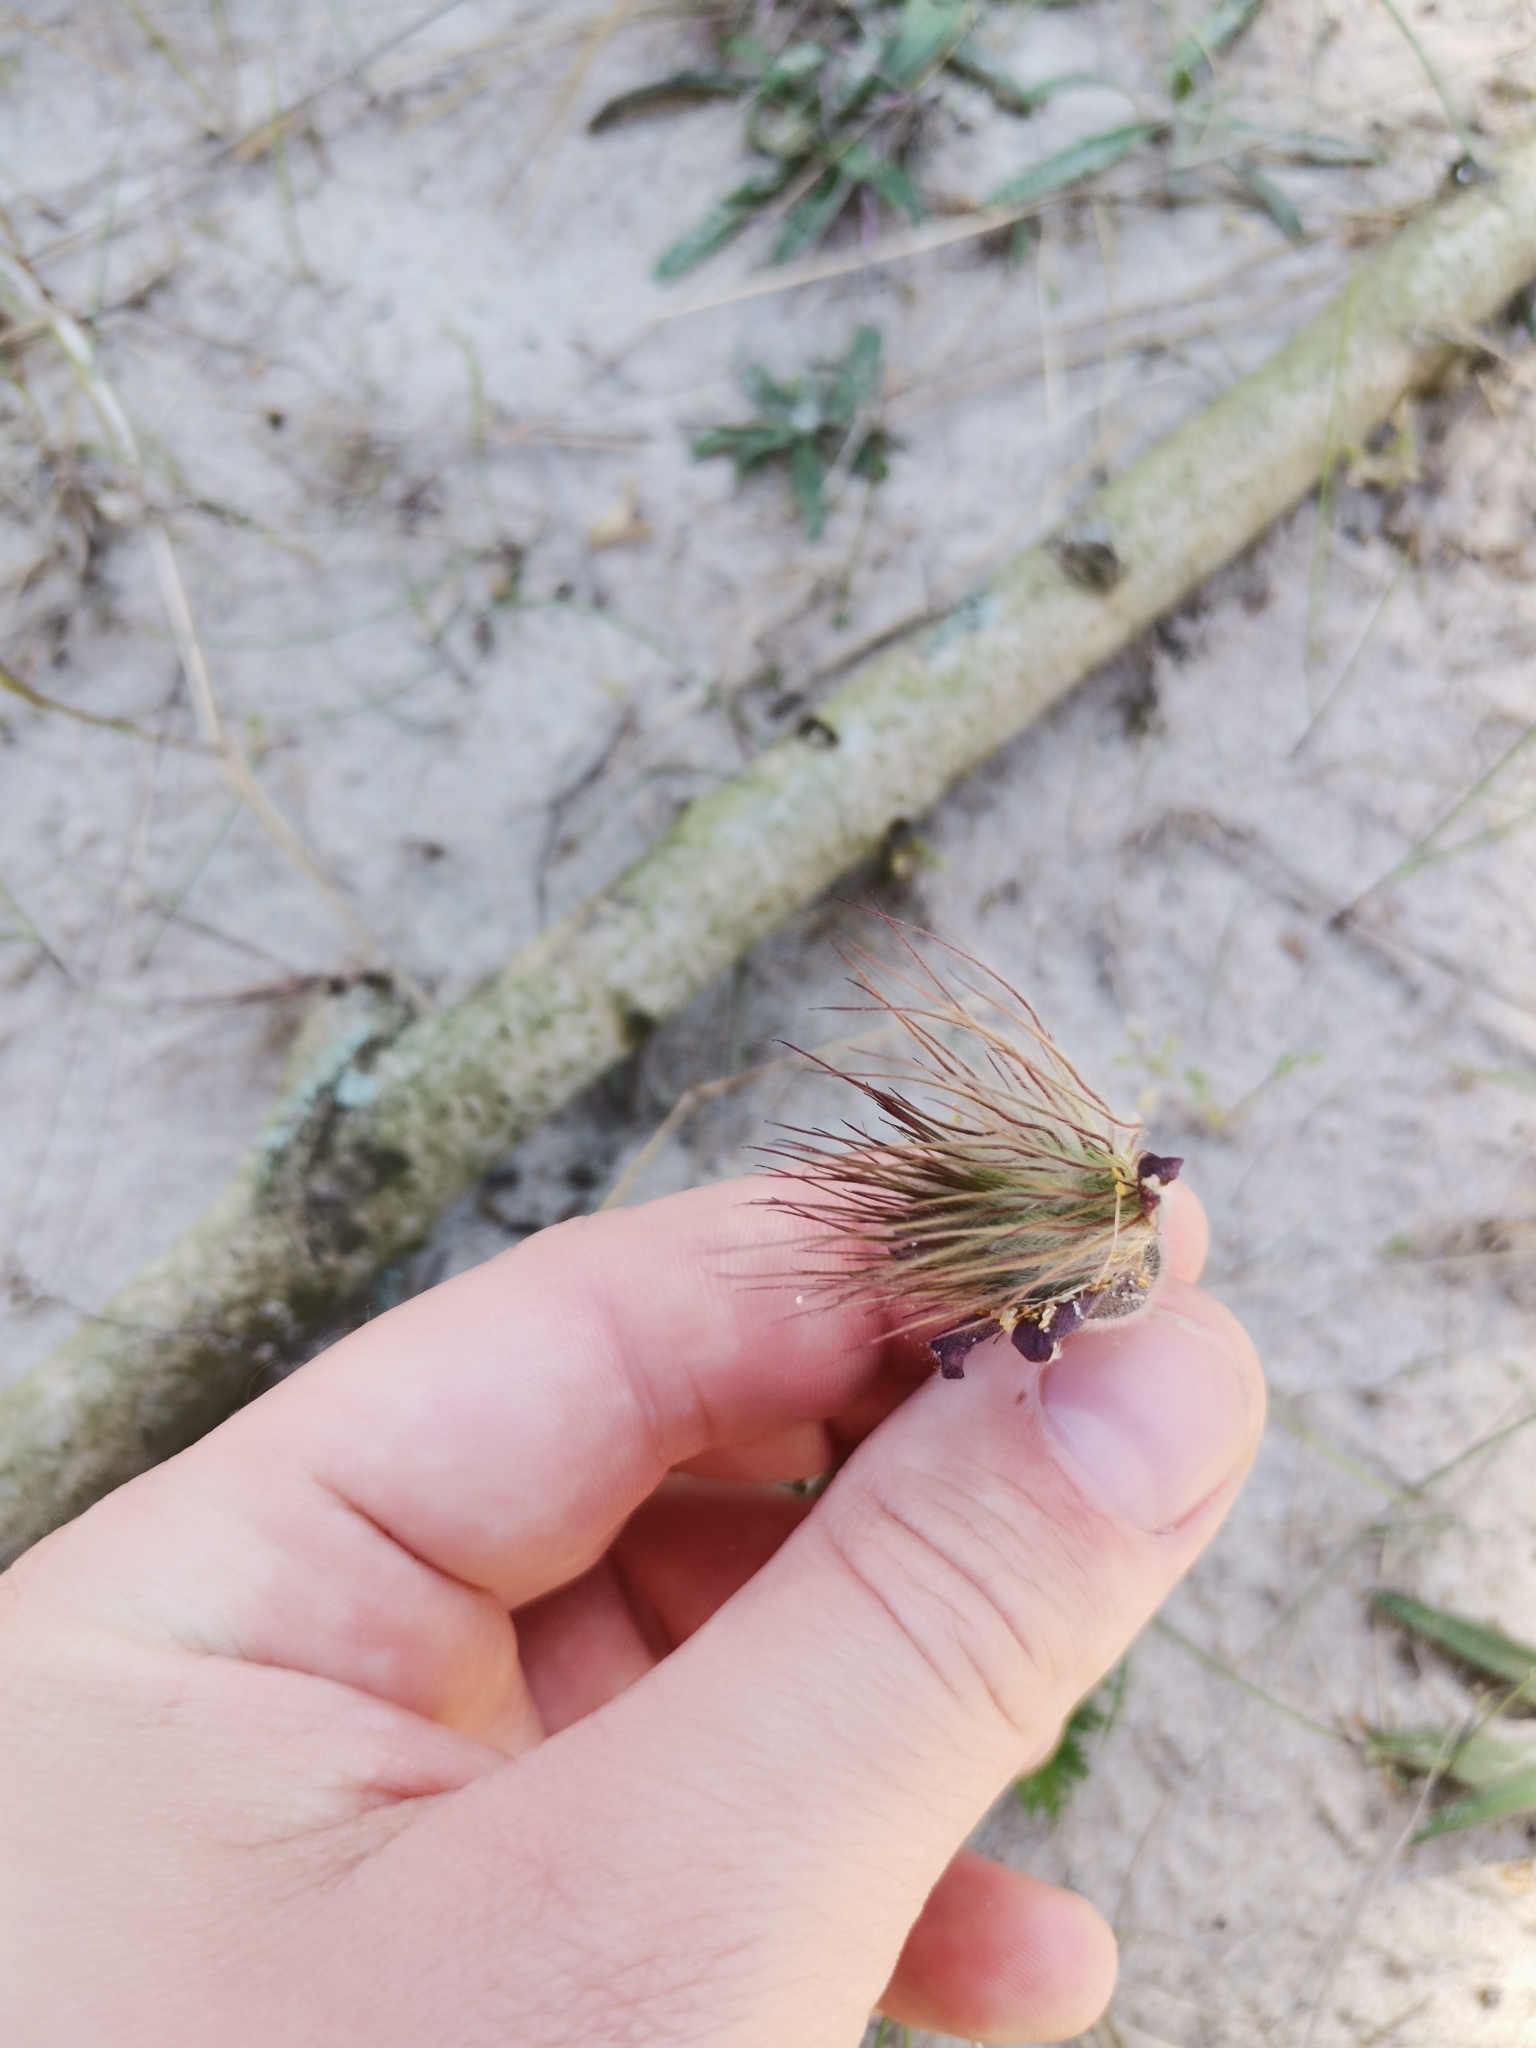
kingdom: Plantae
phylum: Tracheophyta
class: Magnoliopsida
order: Ranunculales
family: Ranunculaceae
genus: Pulsatilla
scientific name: Pulsatilla pratensis
